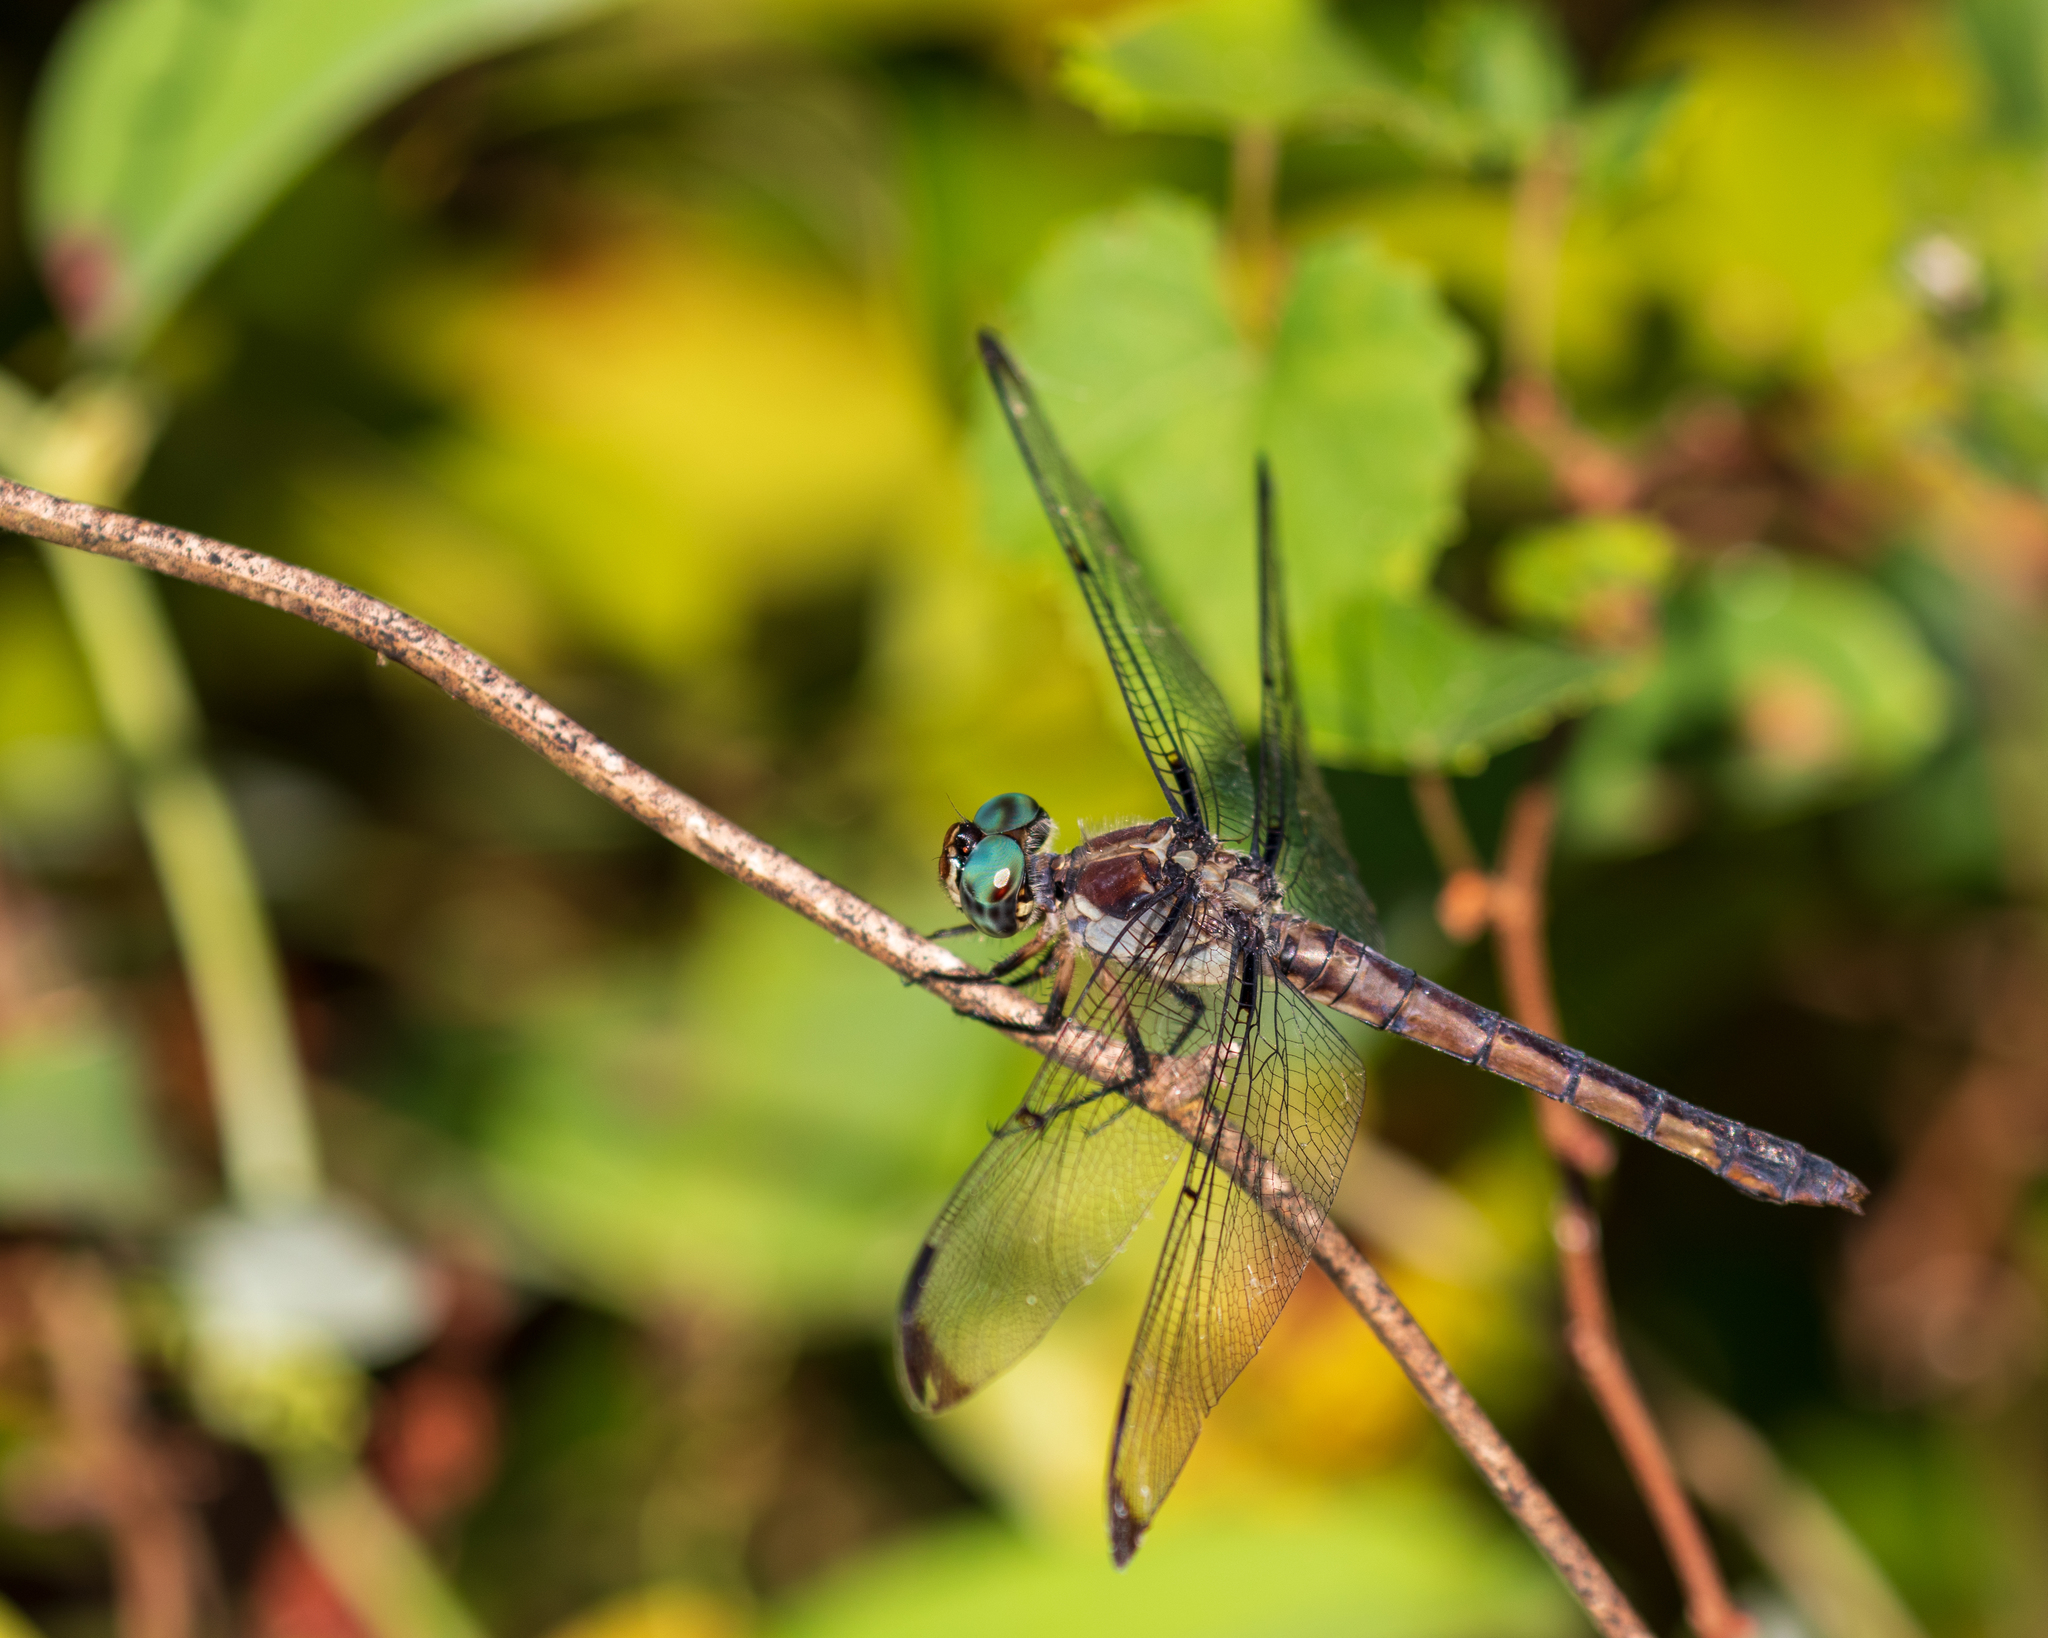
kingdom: Animalia
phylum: Arthropoda
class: Insecta
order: Odonata
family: Libellulidae
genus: Libellula
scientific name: Libellula vibrans
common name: Great blue skimmer
